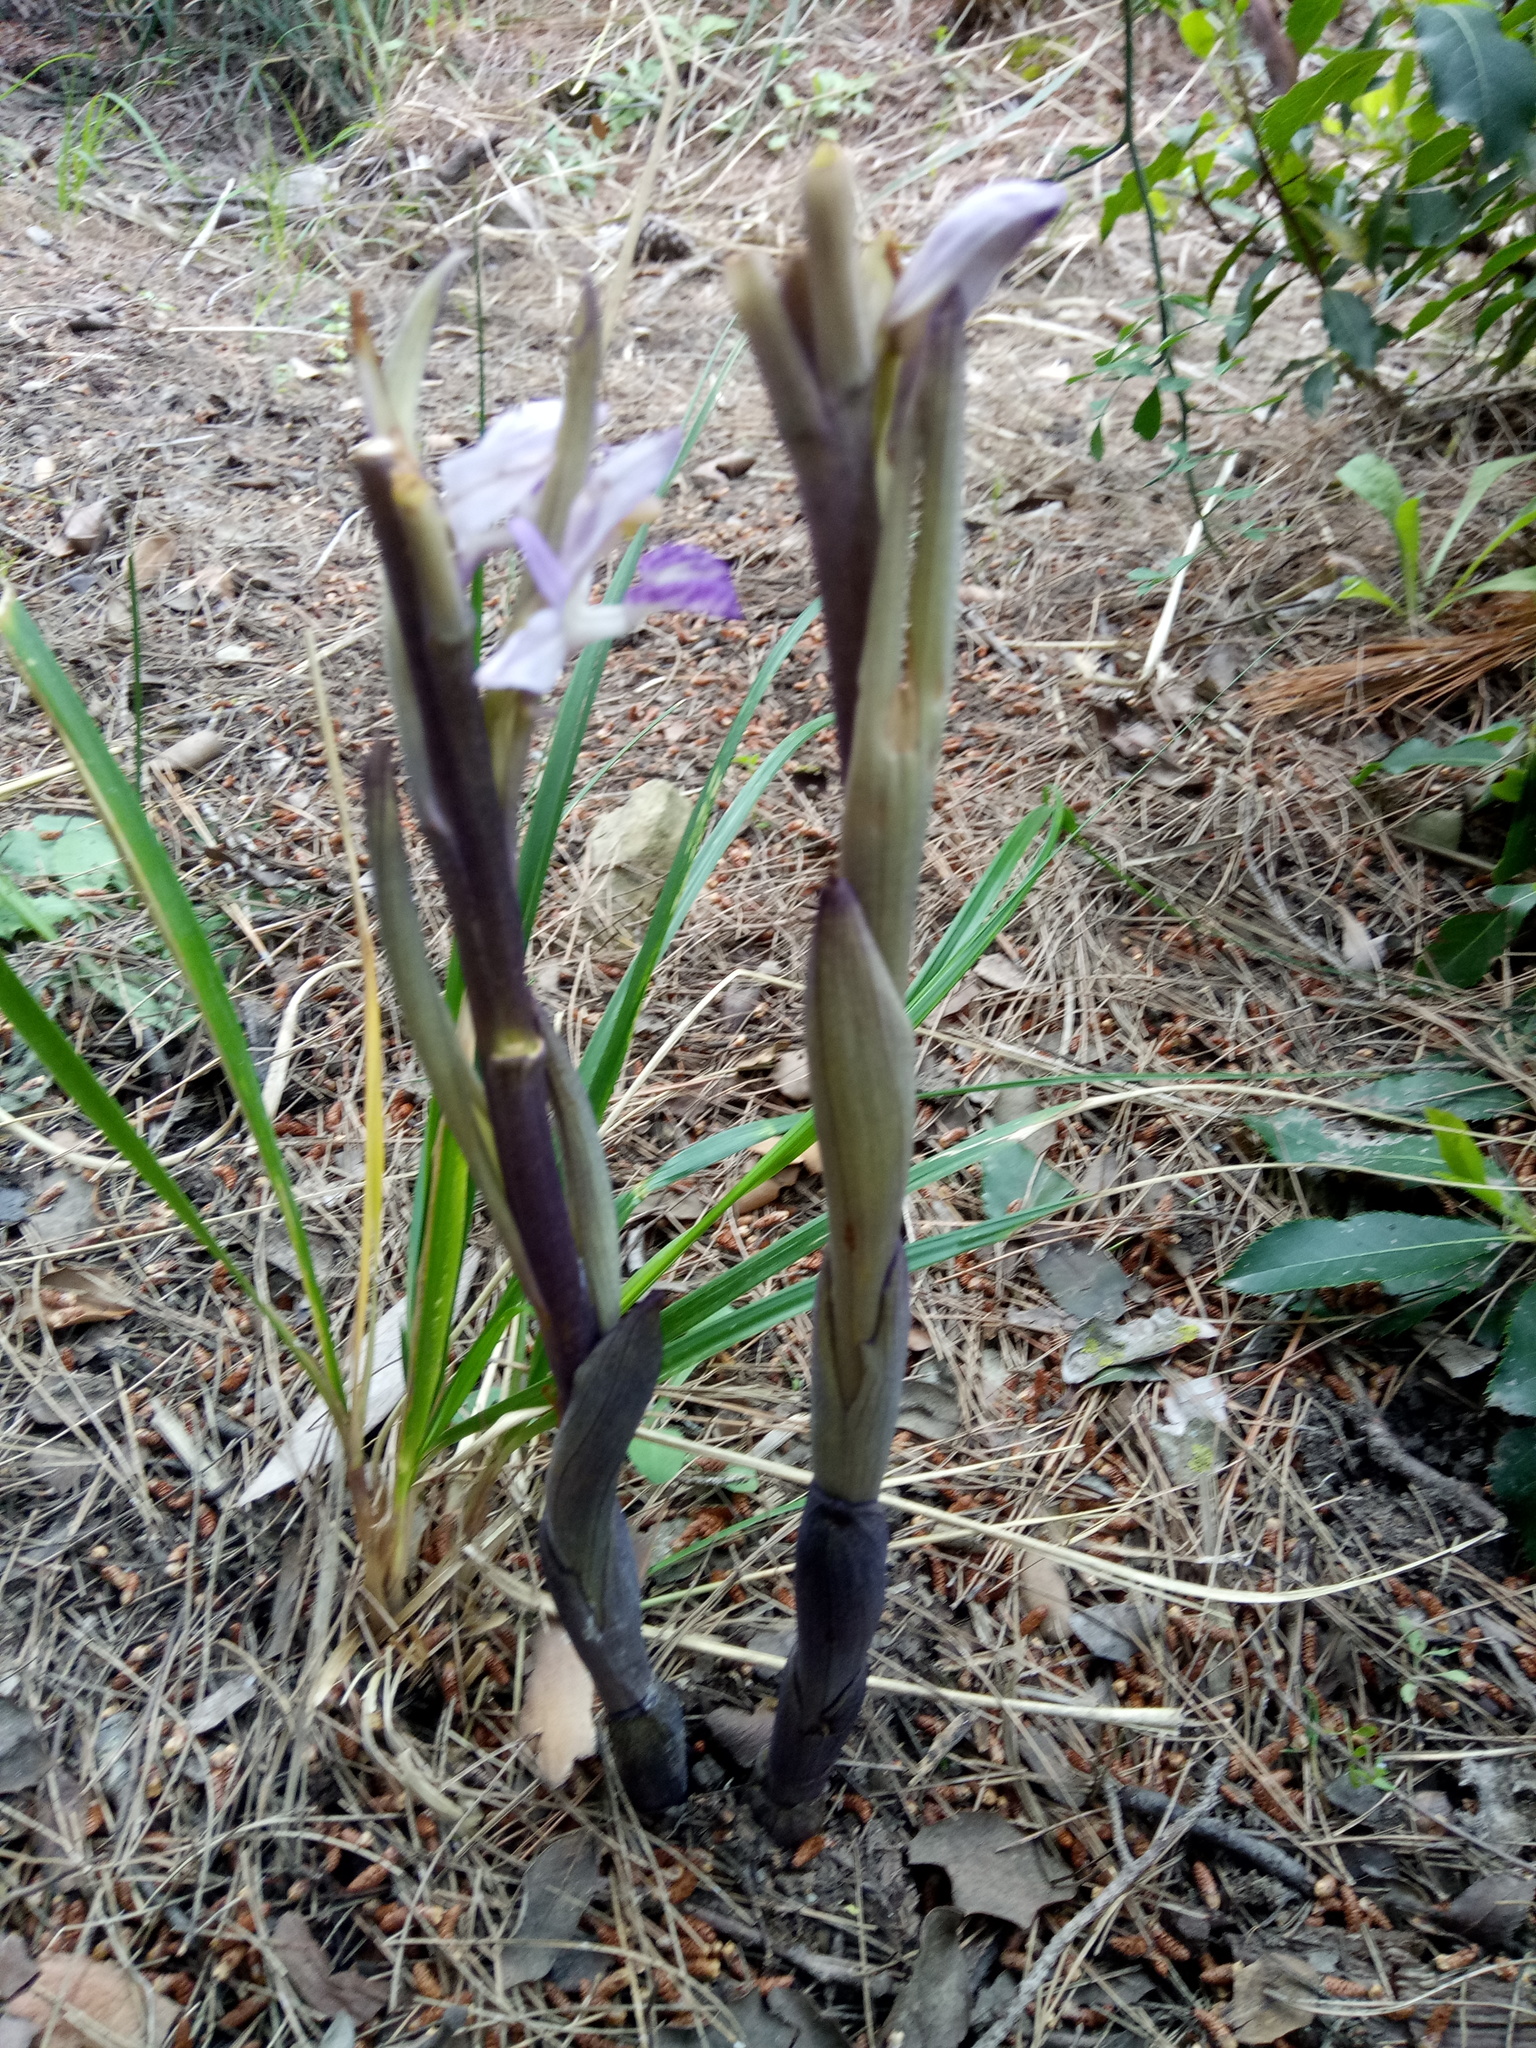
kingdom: Plantae
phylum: Tracheophyta
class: Liliopsida
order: Asparagales
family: Orchidaceae
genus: Limodorum
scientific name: Limodorum abortivum
